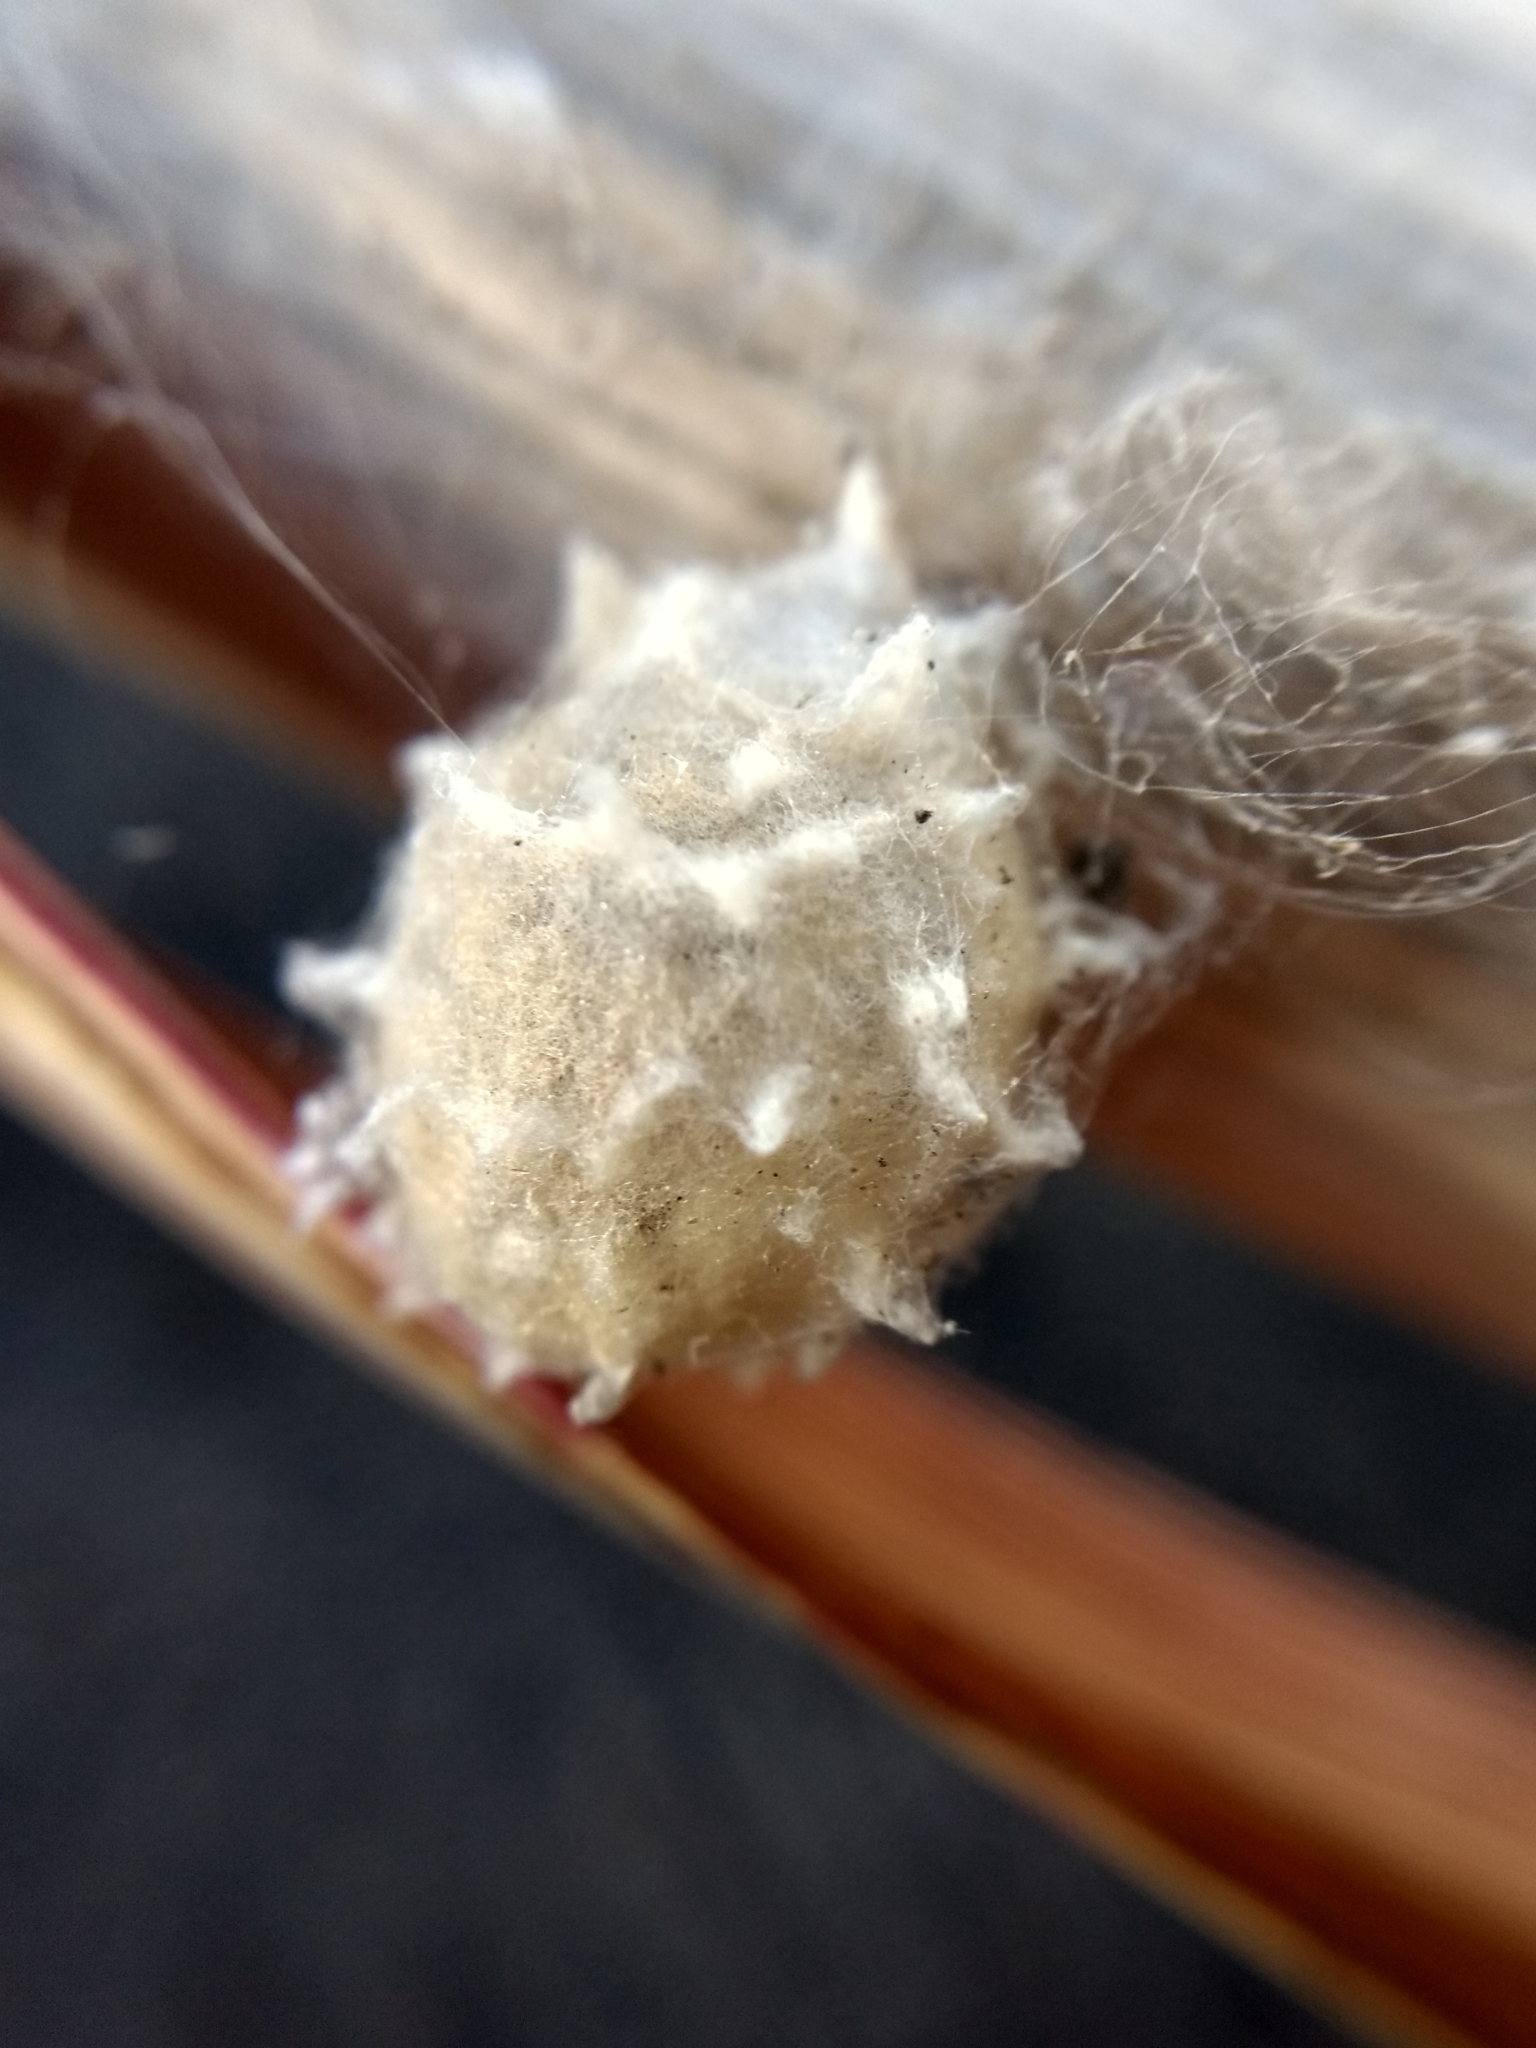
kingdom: Animalia
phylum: Arthropoda
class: Arachnida
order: Araneae
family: Theridiidae
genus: Latrodectus
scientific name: Latrodectus geometricus
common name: Brown widow spider
